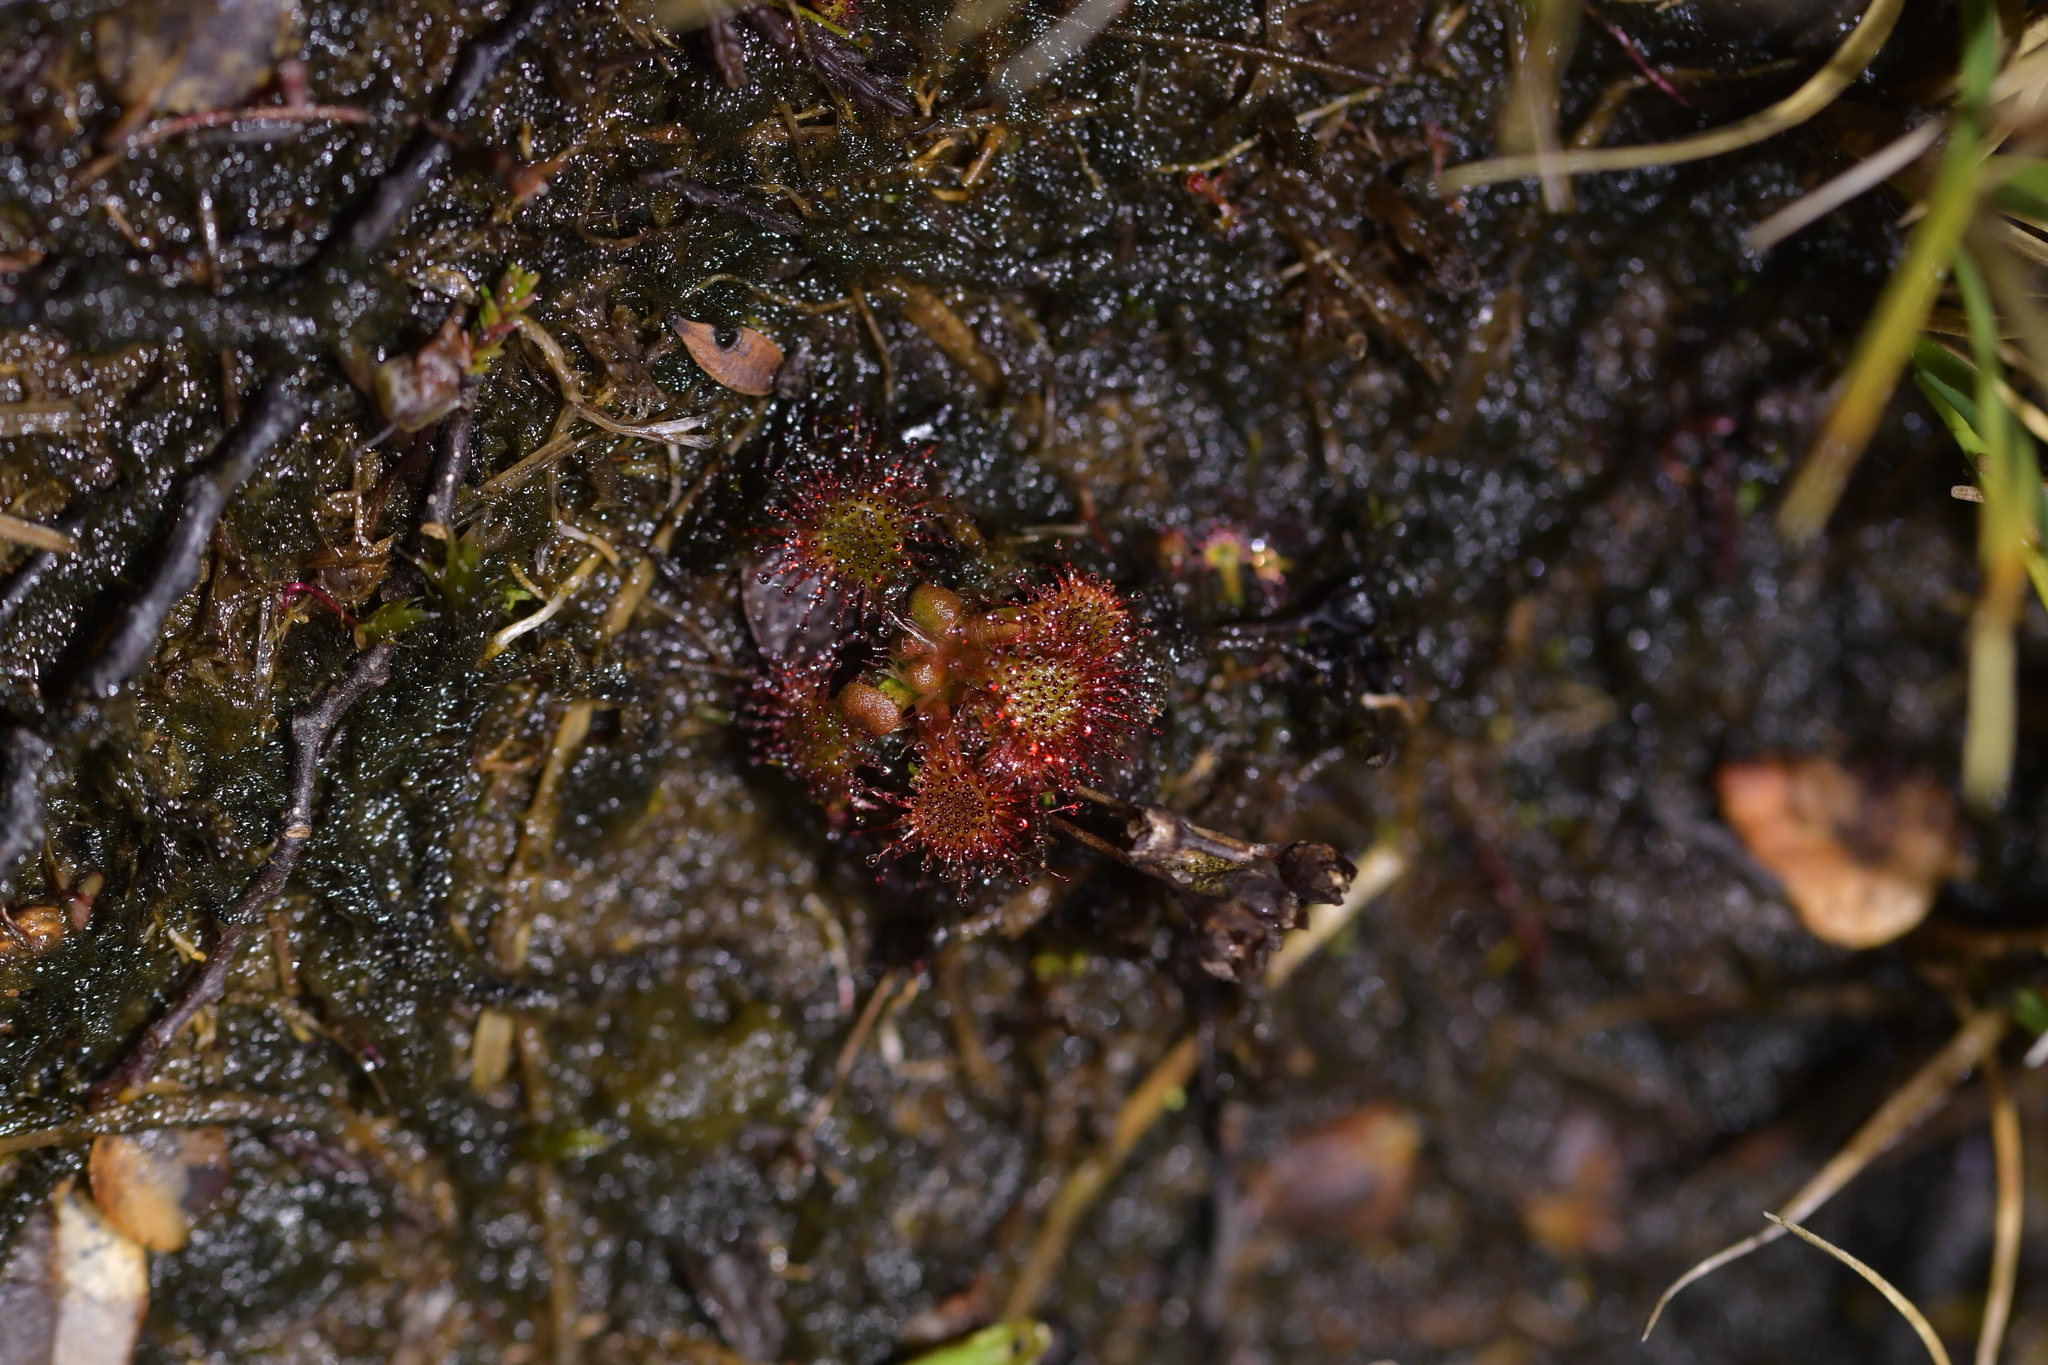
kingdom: Plantae
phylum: Tracheophyta
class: Magnoliopsida
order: Caryophyllales
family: Droseraceae
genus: Drosera
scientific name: Drosera spatulata
